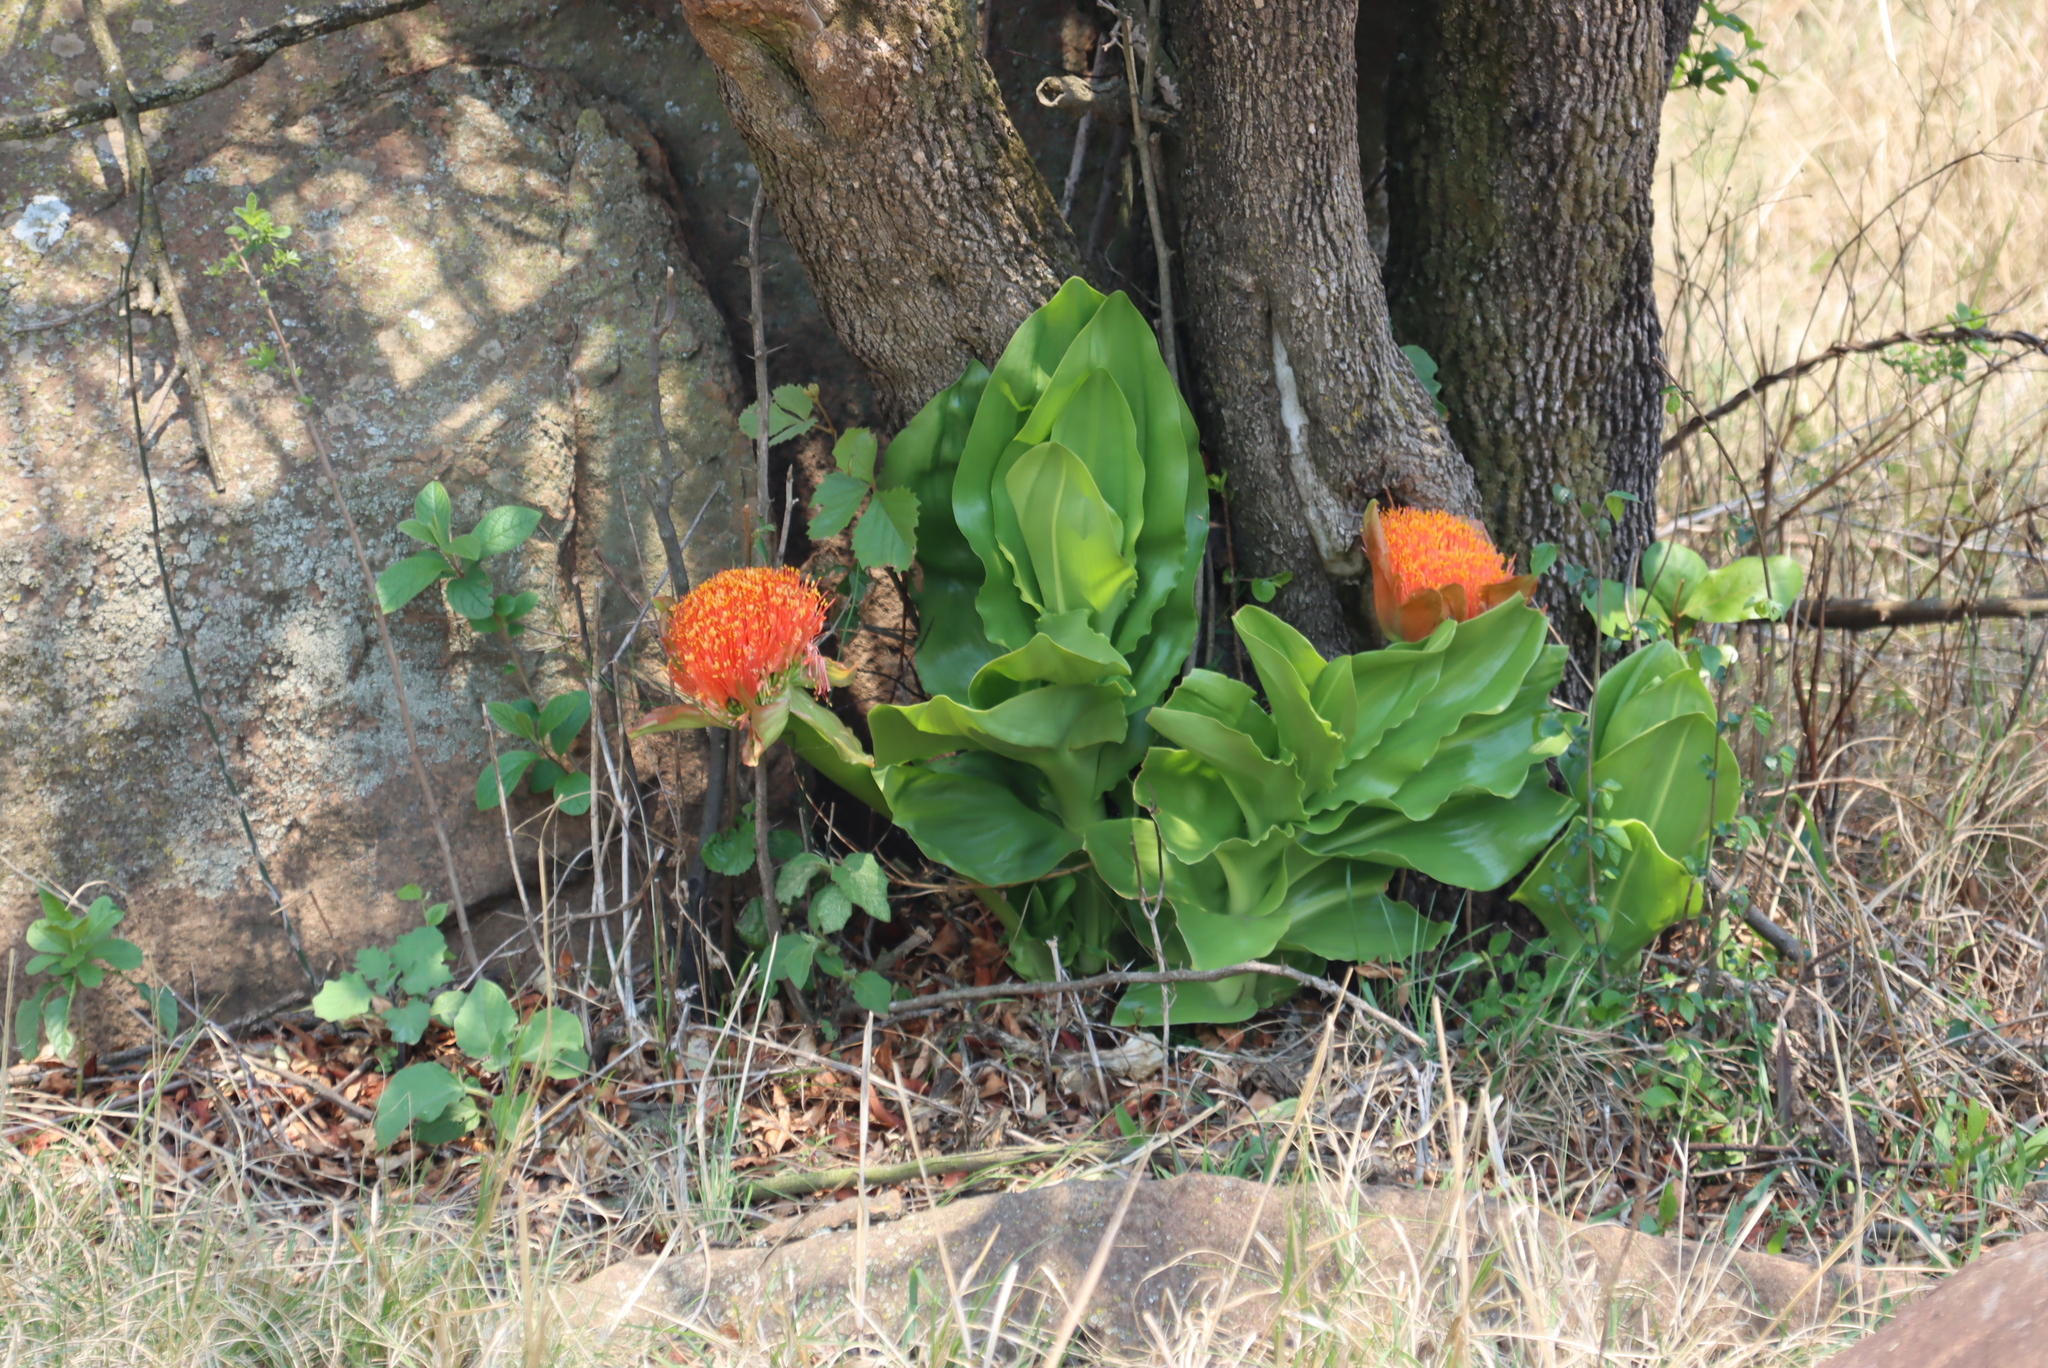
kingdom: Plantae
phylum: Tracheophyta
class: Liliopsida
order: Asparagales
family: Amaryllidaceae
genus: Scadoxus
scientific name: Scadoxus puniceus
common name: Royal-paintbrush
